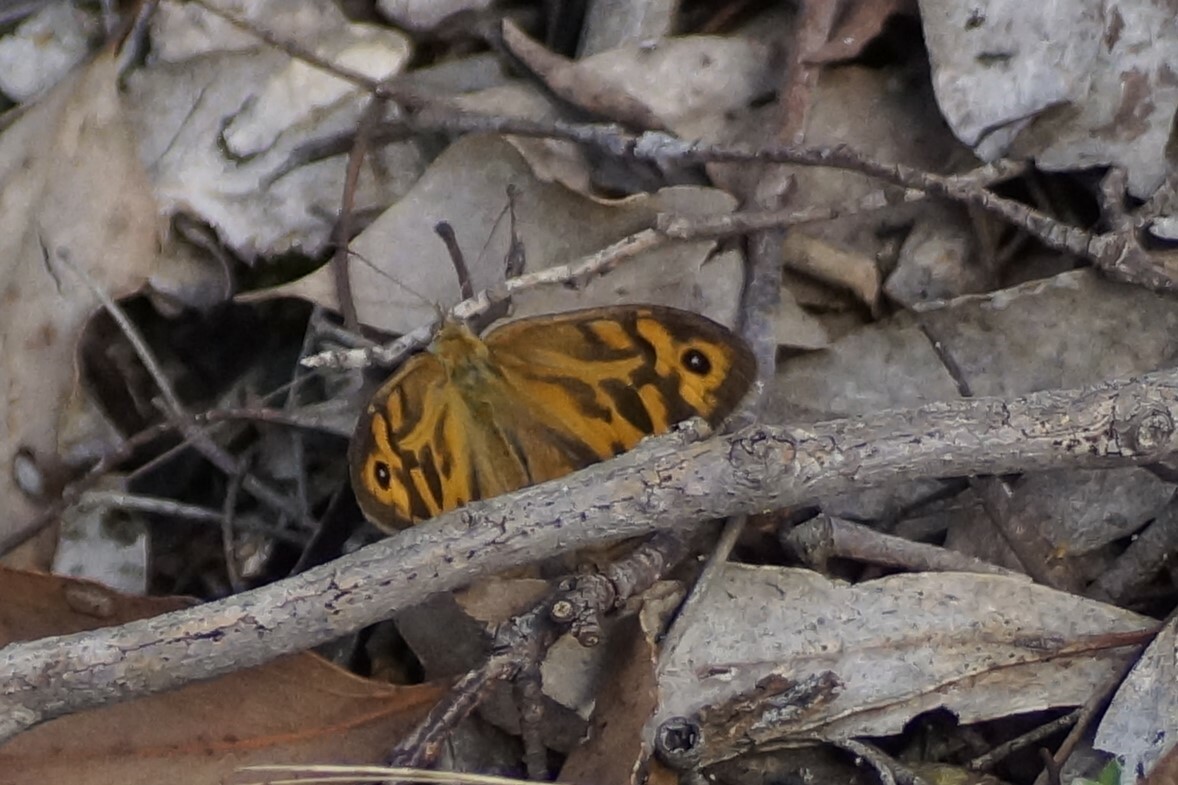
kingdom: Animalia
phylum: Arthropoda
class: Insecta
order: Lepidoptera
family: Nymphalidae
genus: Heteronympha
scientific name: Heteronympha merope
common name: Common brown
